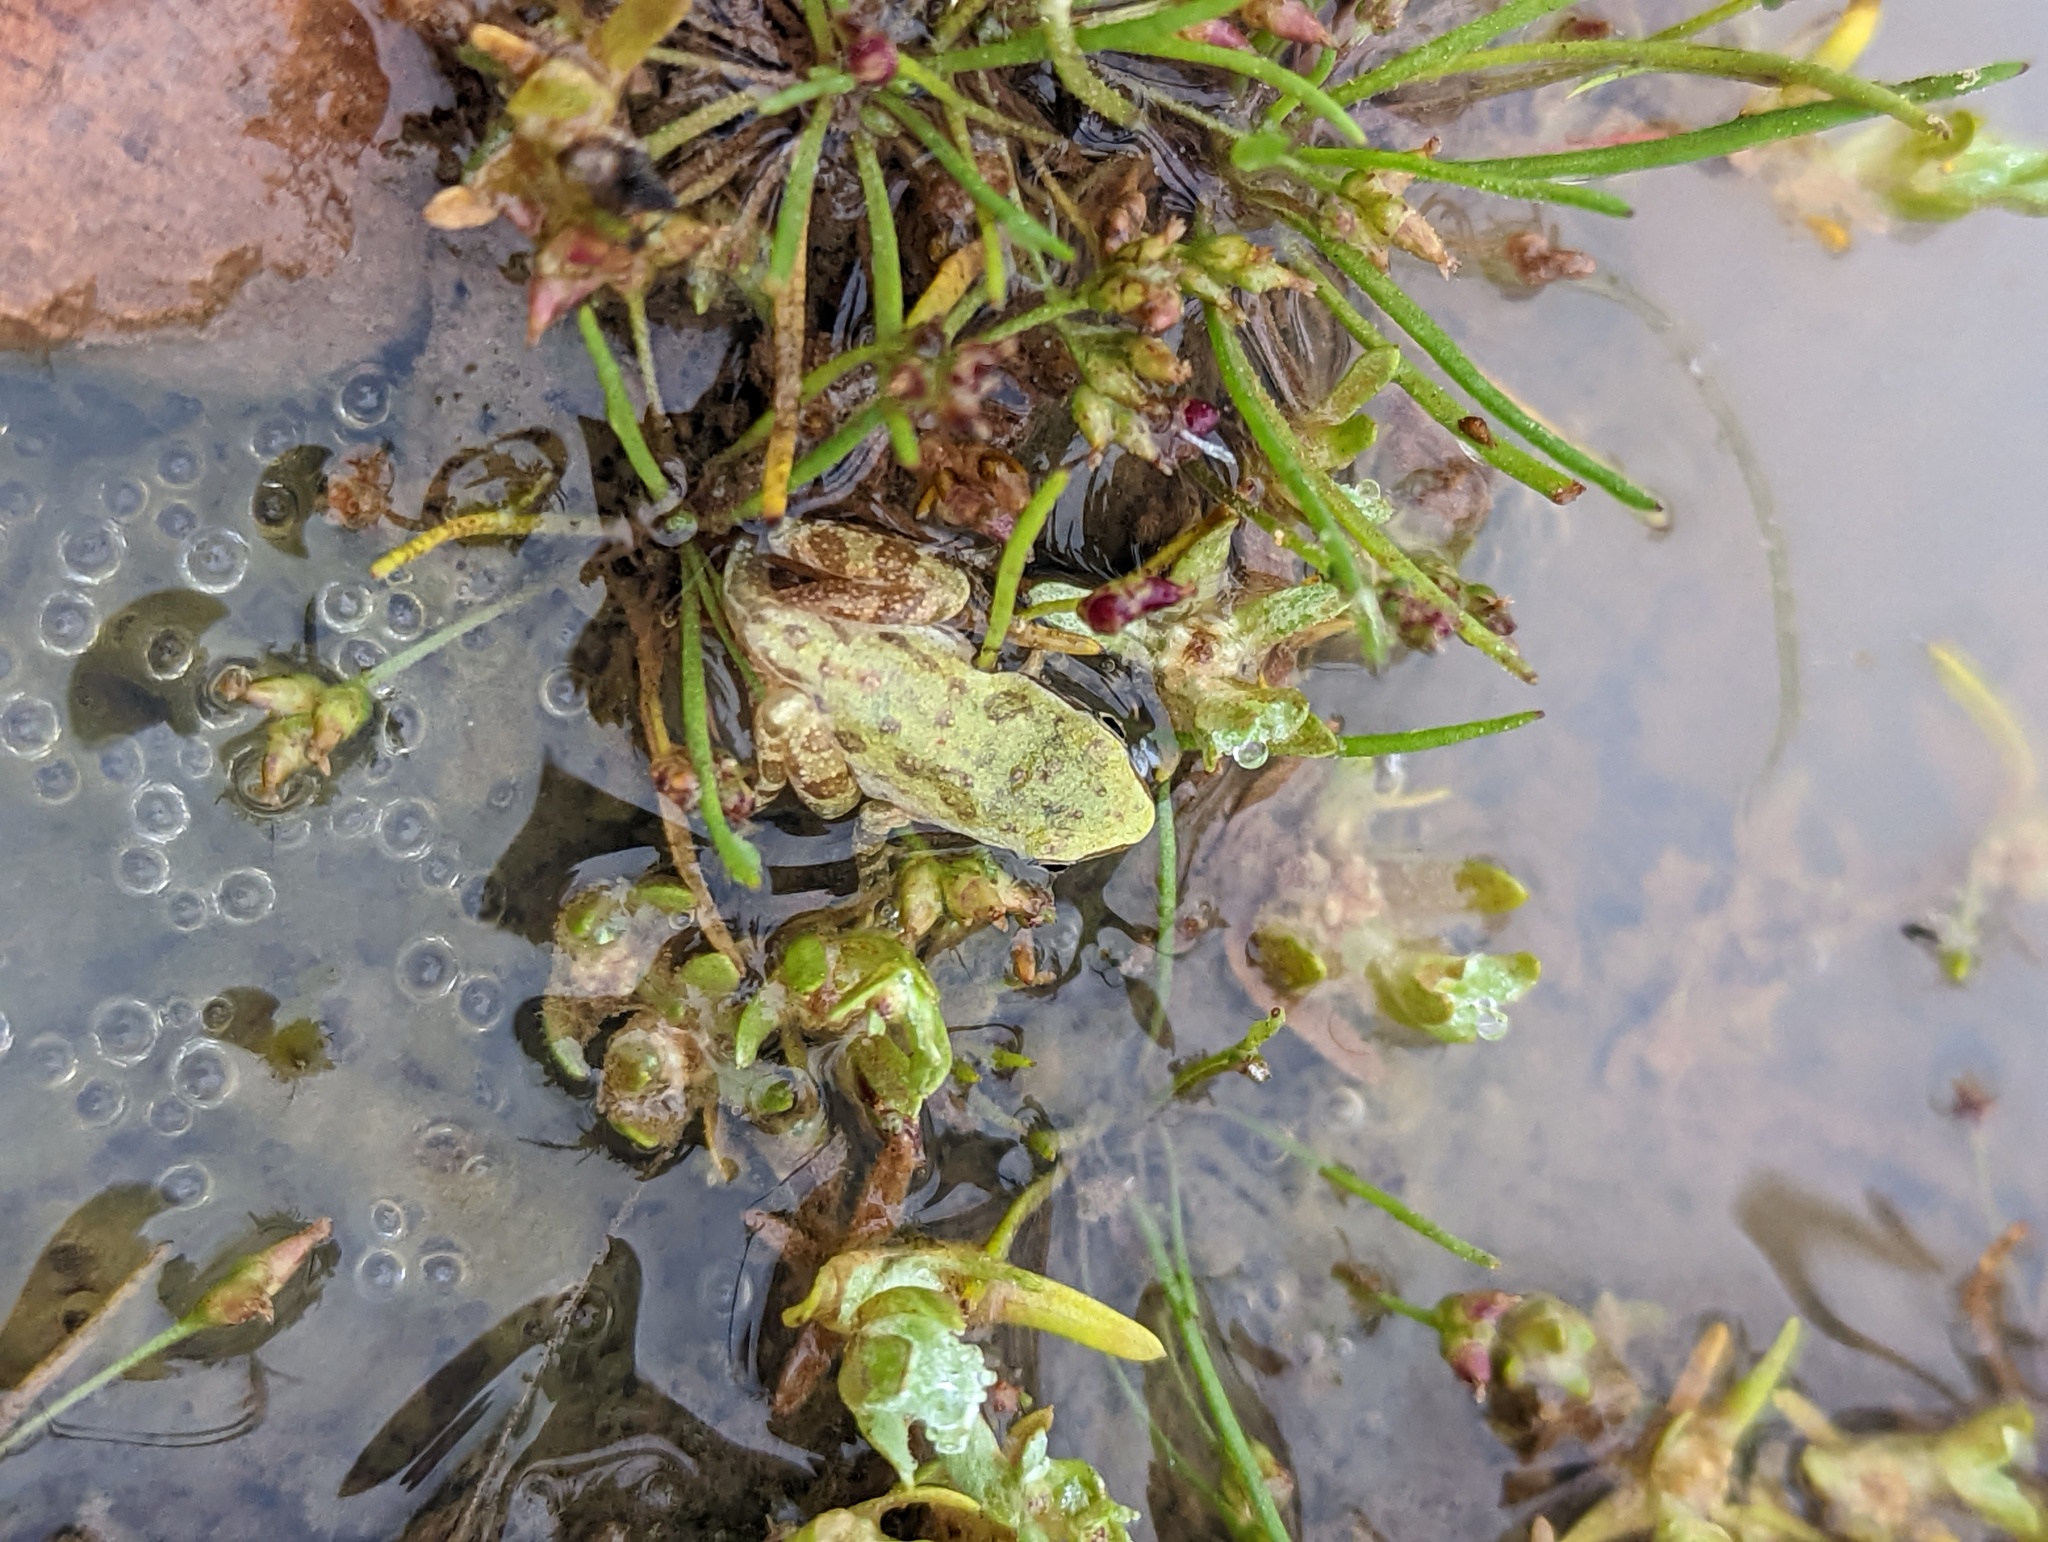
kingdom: Animalia
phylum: Chordata
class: Amphibia
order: Anura
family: Hylidae
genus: Pseudacris
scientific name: Pseudacris regilla
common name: Pacific chorus frog
